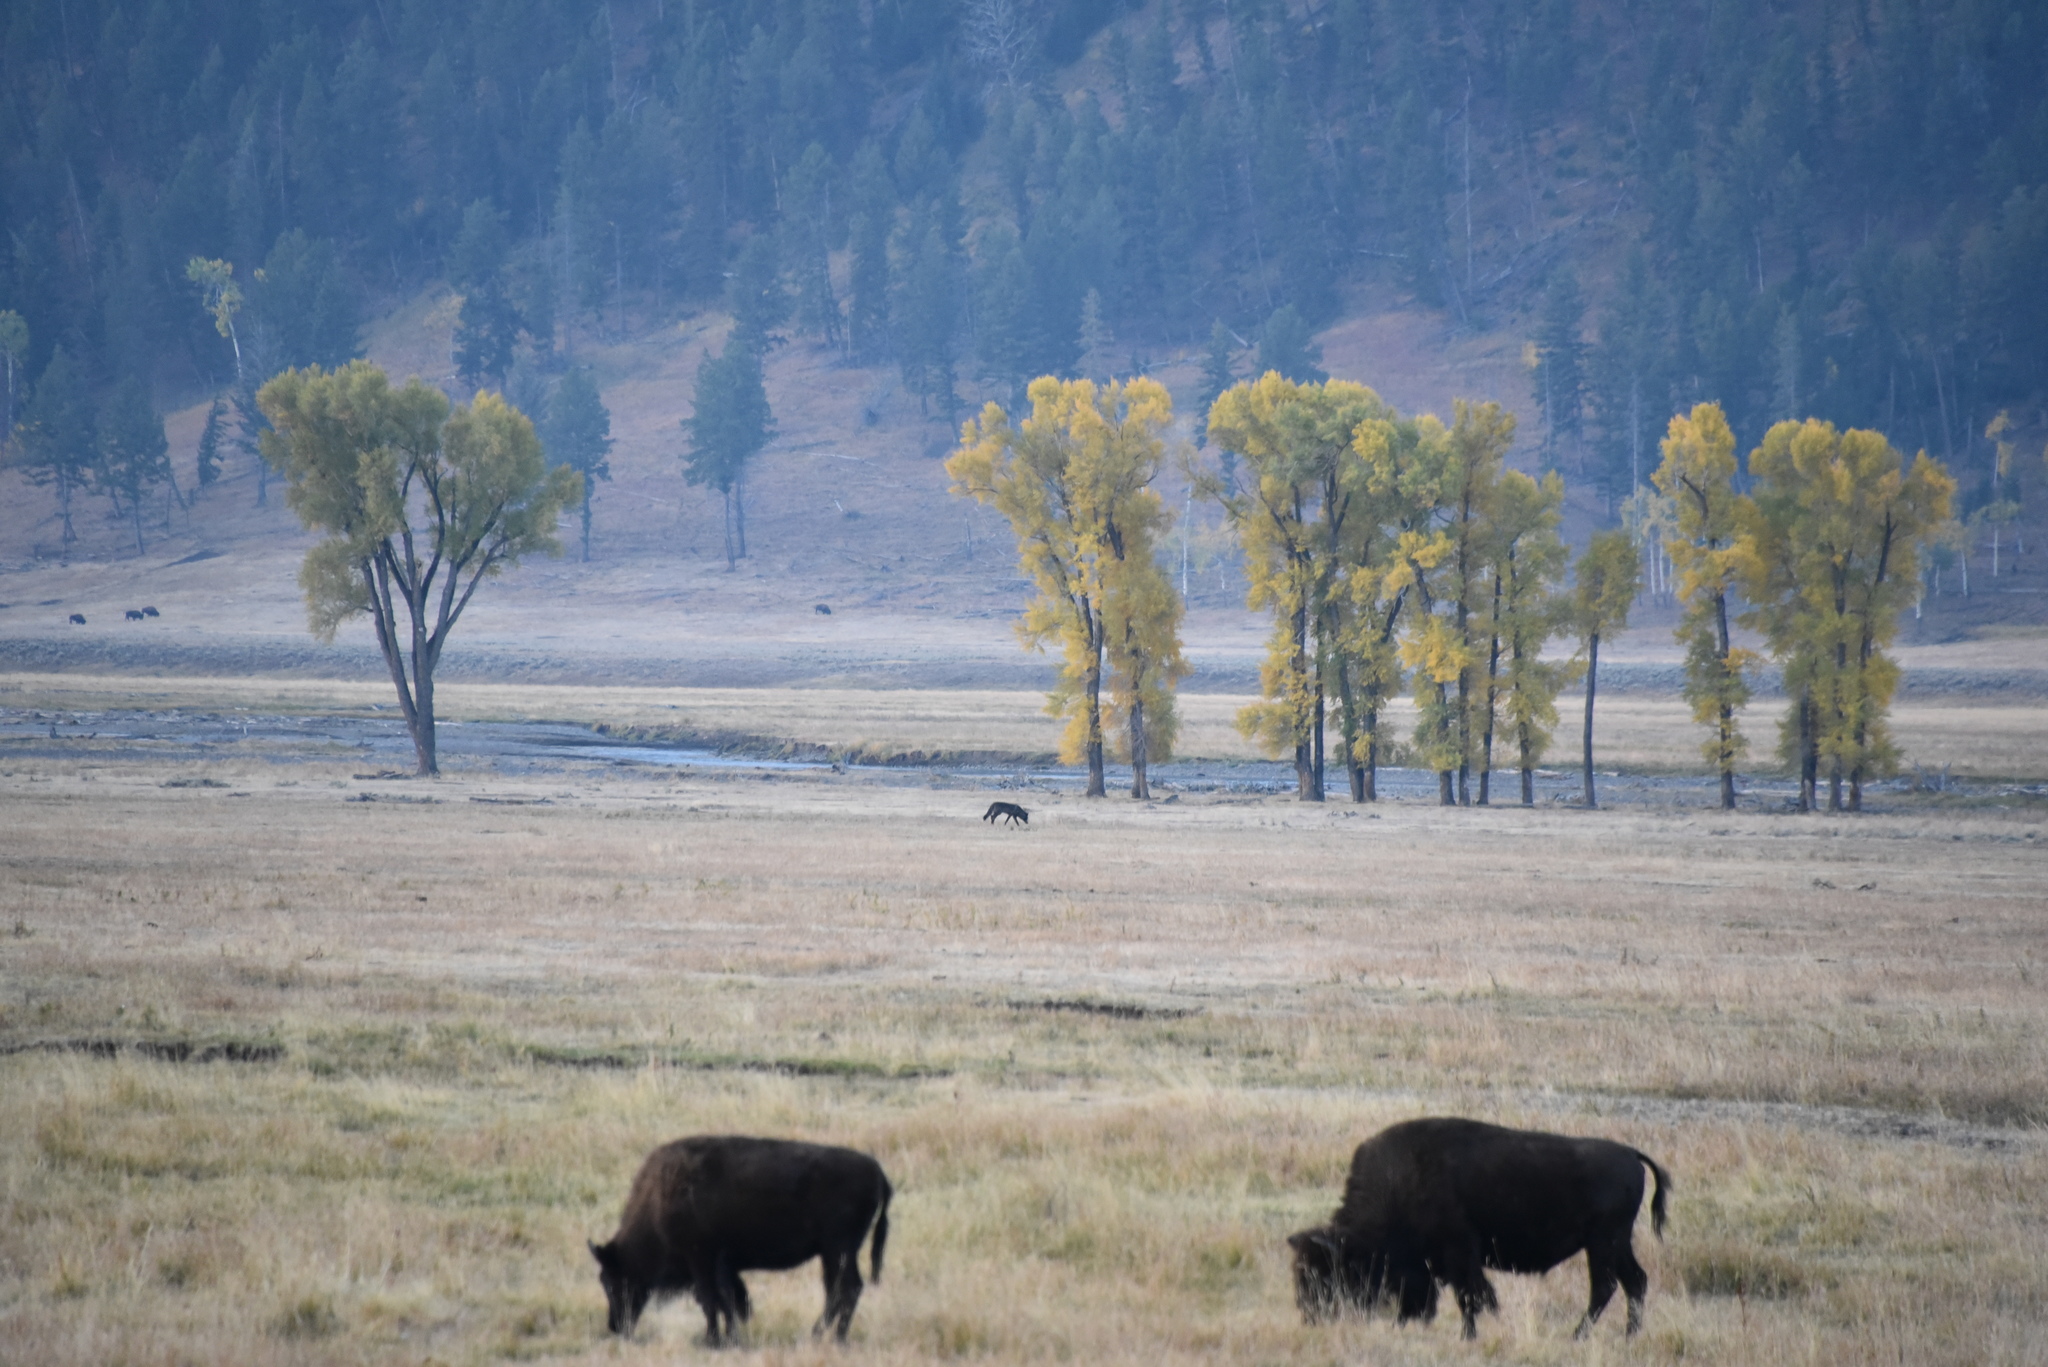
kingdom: Animalia
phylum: Chordata
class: Mammalia
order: Artiodactyla
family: Bovidae
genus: Bison
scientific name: Bison bison
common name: American bison
